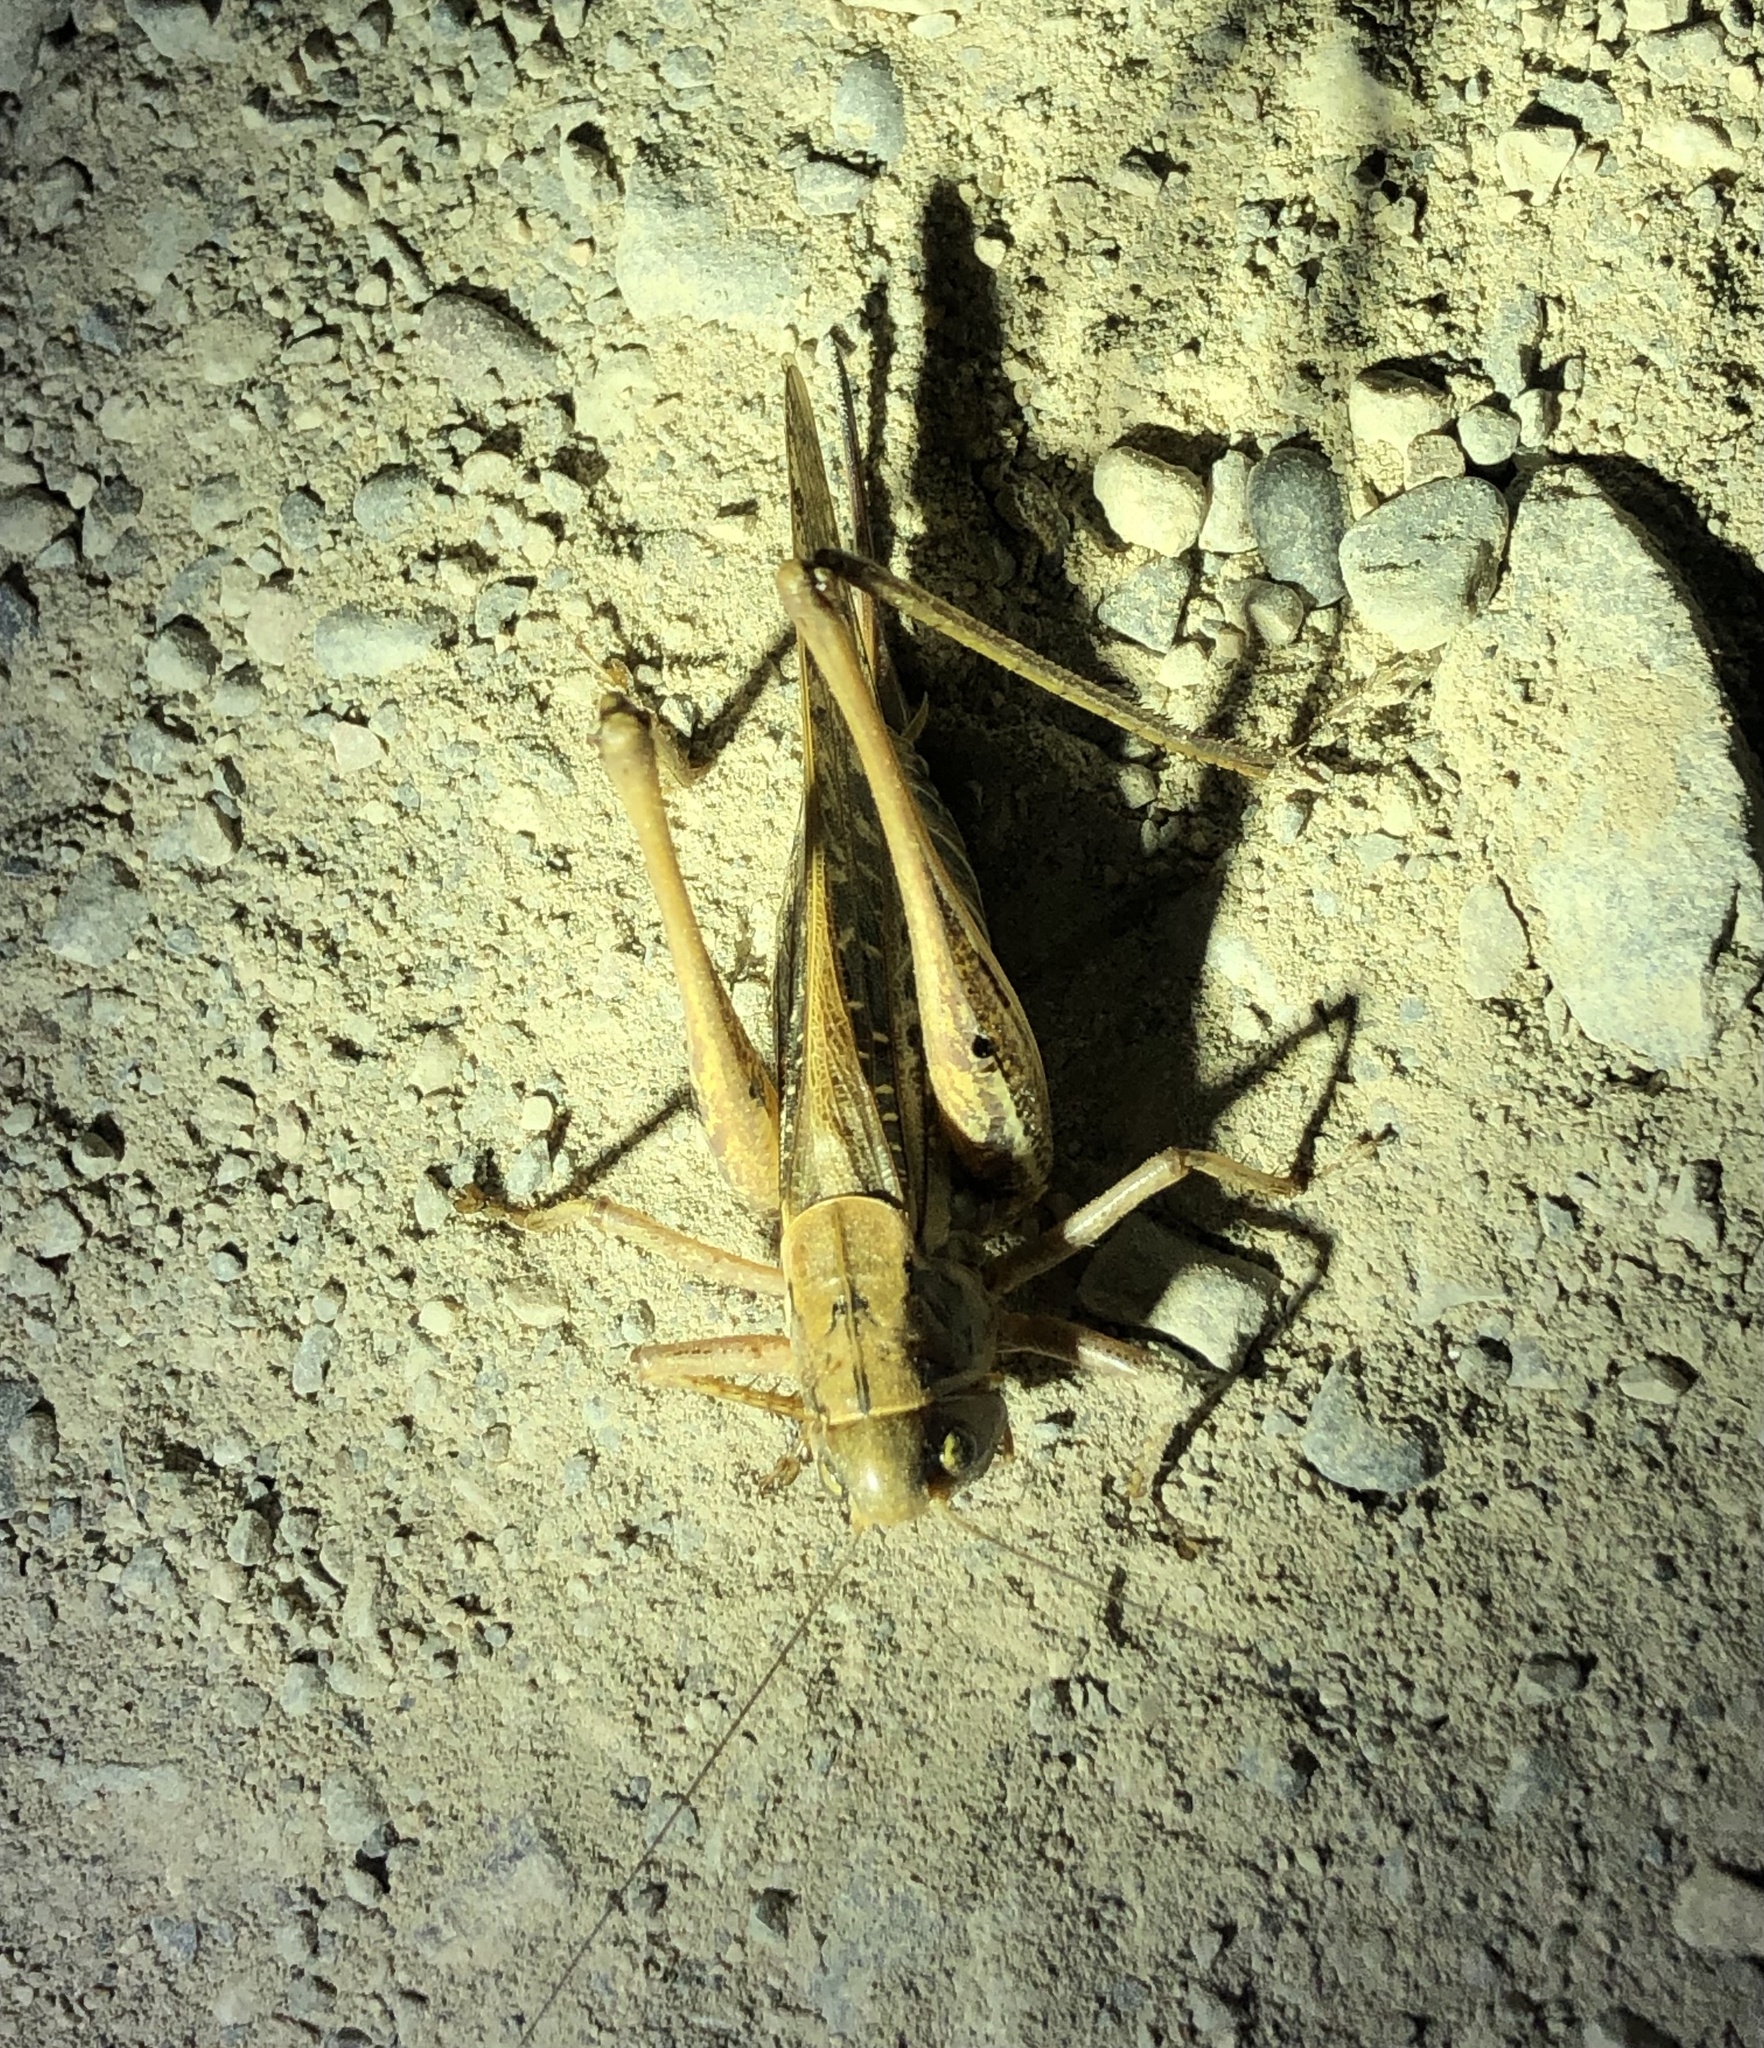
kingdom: Animalia
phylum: Arthropoda
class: Insecta
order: Orthoptera
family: Tettigoniidae
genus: Decticus
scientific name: Decticus albifrons
